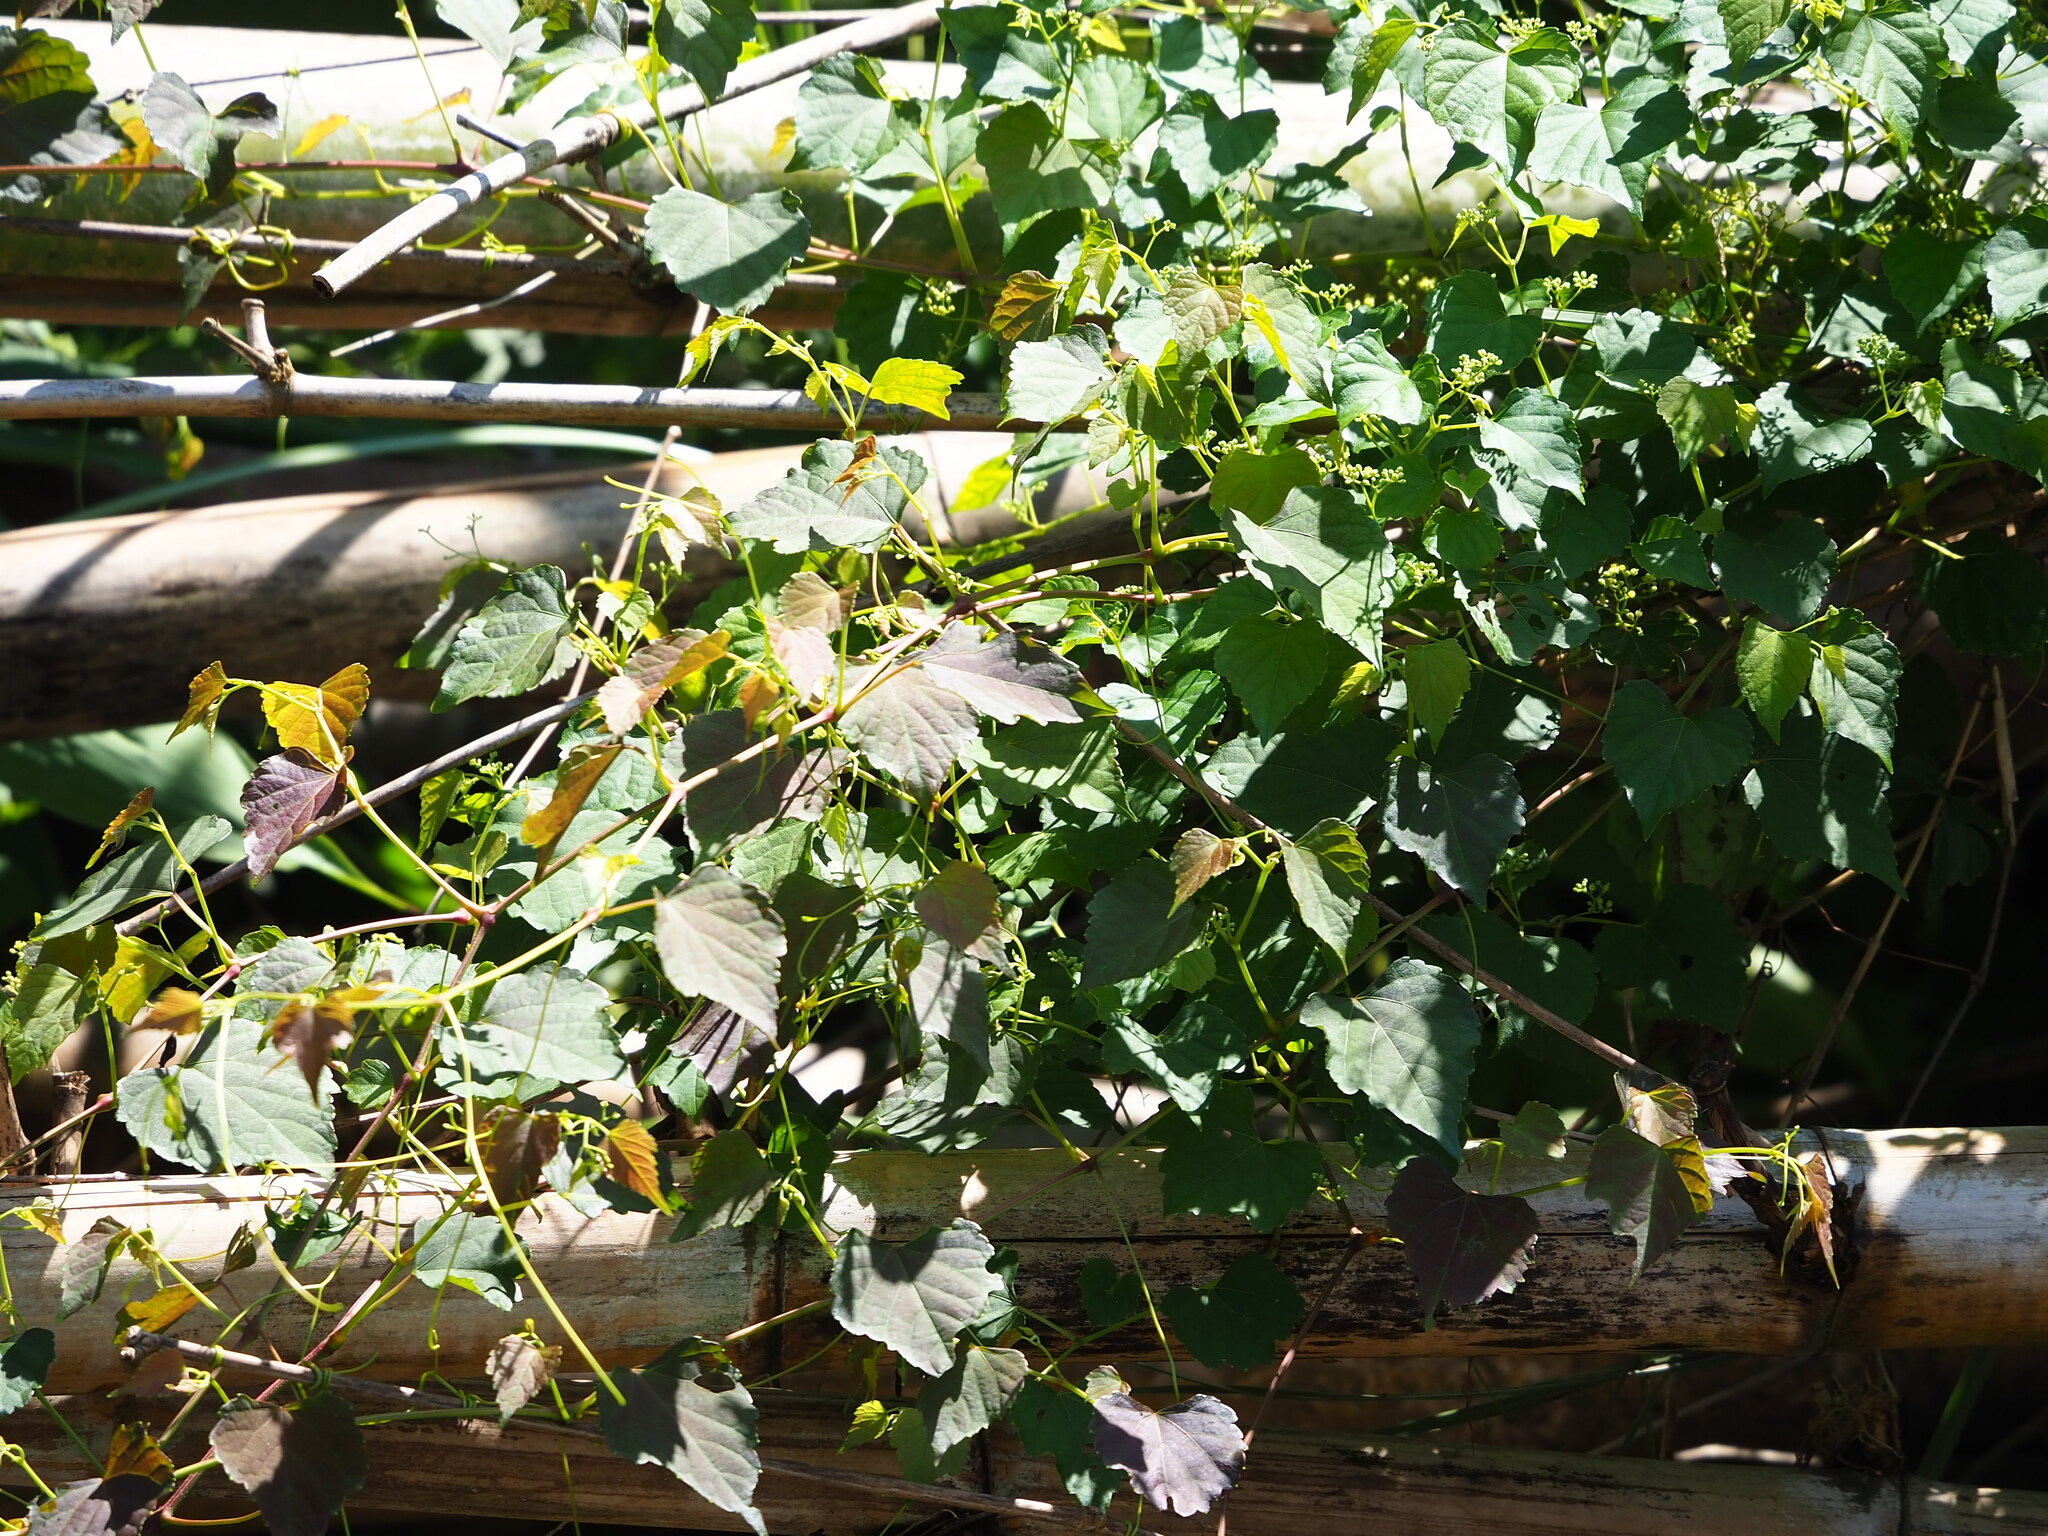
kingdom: Plantae
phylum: Tracheophyta
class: Magnoliopsida
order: Vitales
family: Vitaceae
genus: Ampelopsis
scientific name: Ampelopsis glandulosa
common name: Amur peppervine
